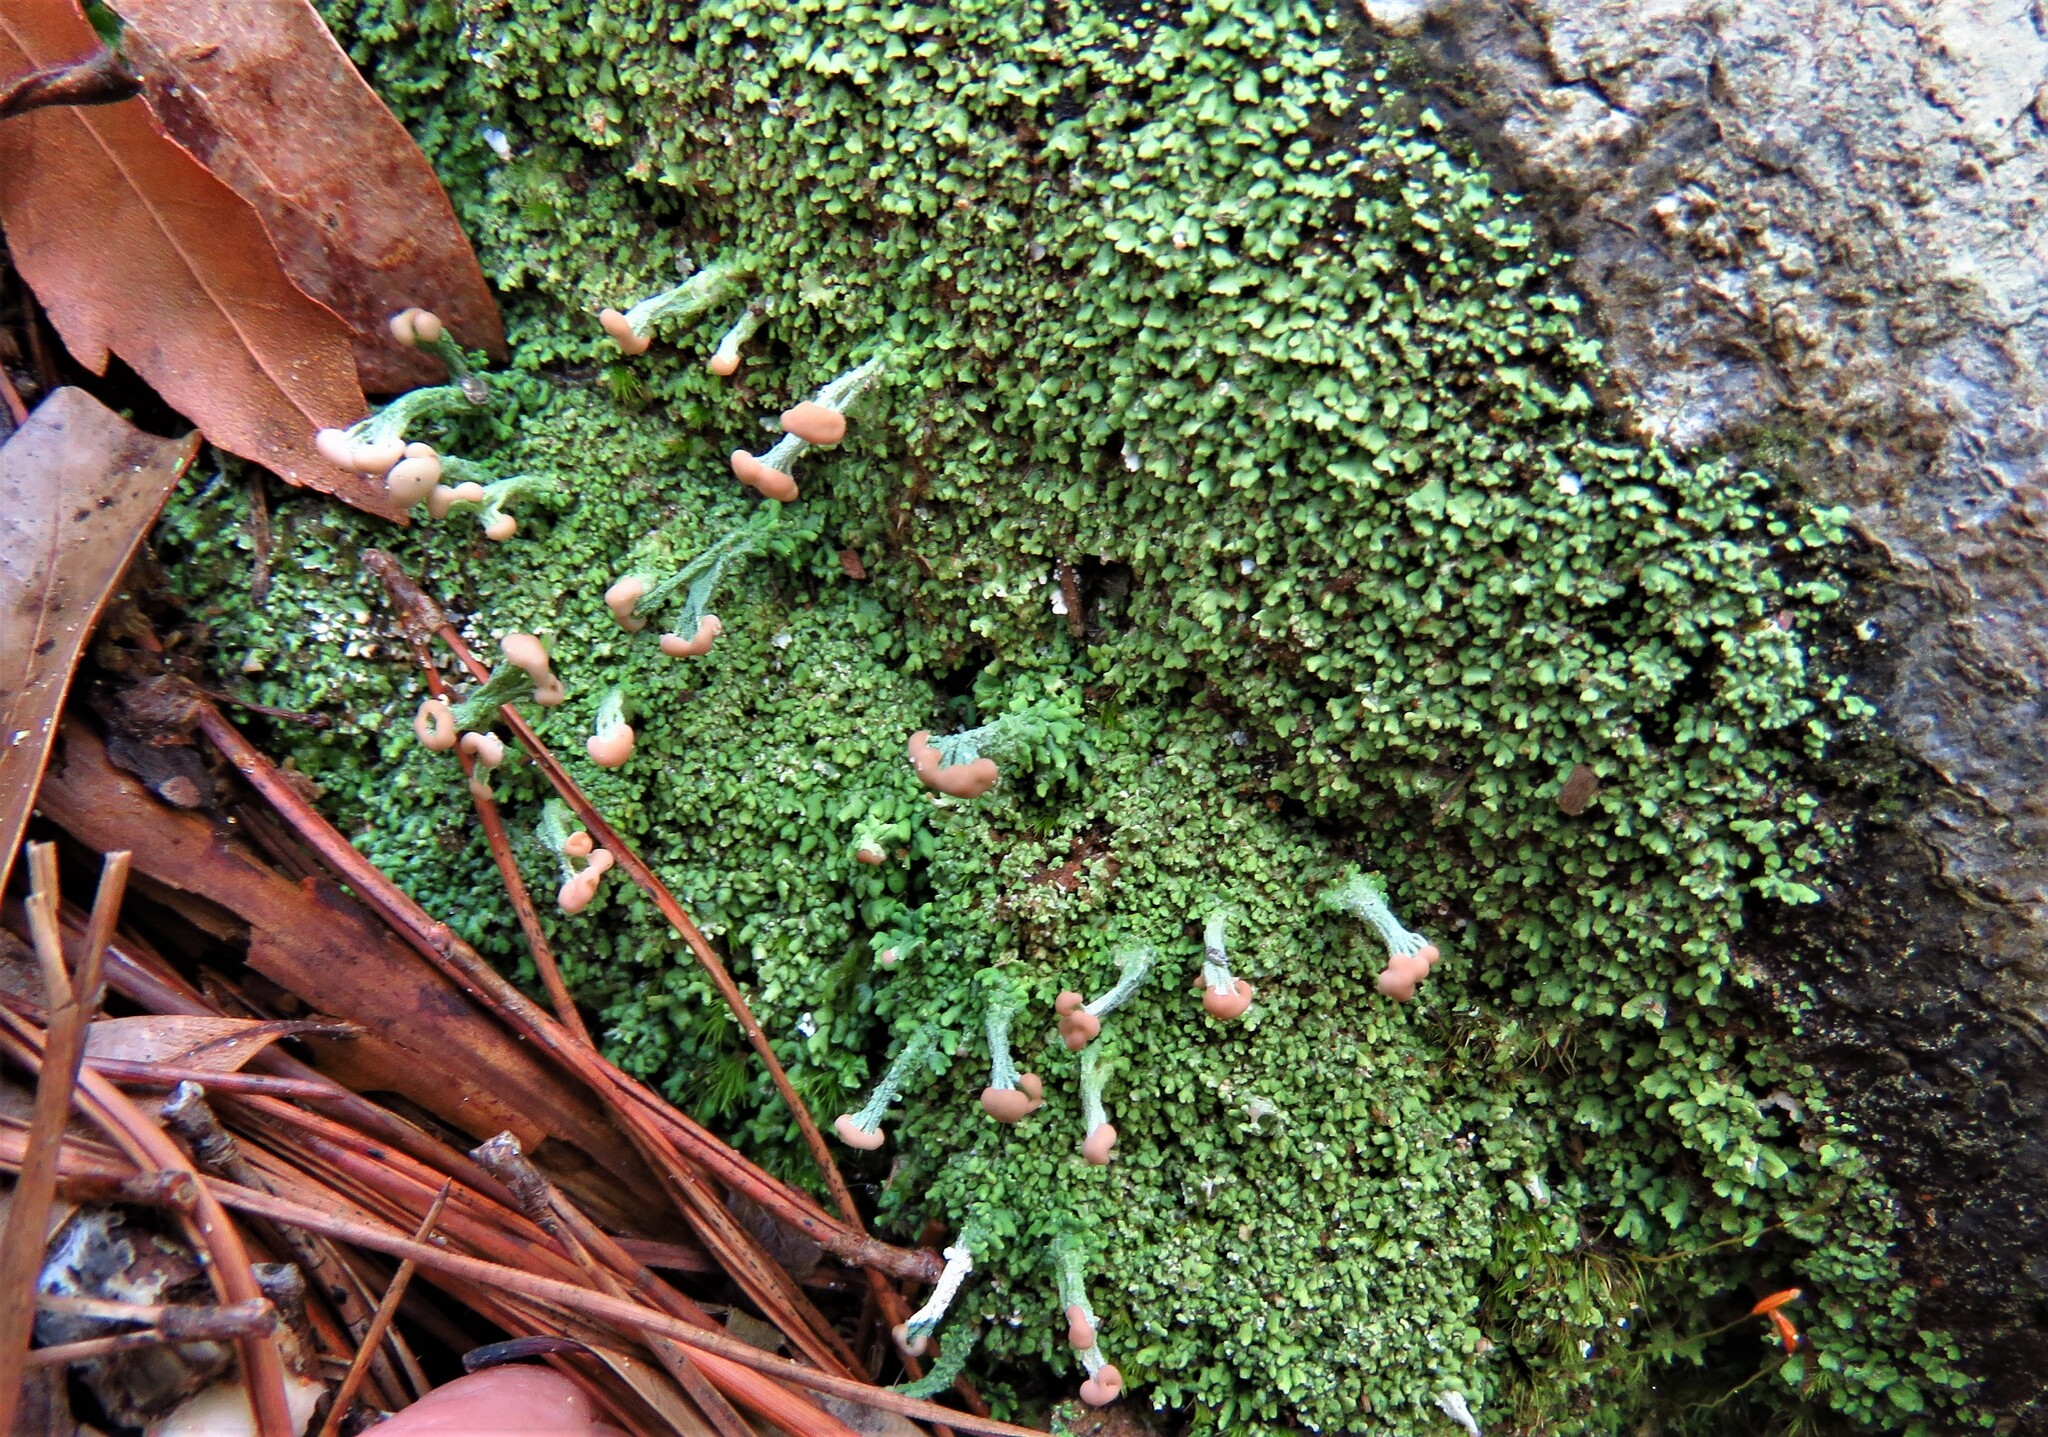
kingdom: Fungi
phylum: Ascomycota
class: Lecanoromycetes
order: Lecanorales
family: Cladoniaceae
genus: Cladonia
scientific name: Cladonia peziziformis
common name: Cup lichen
